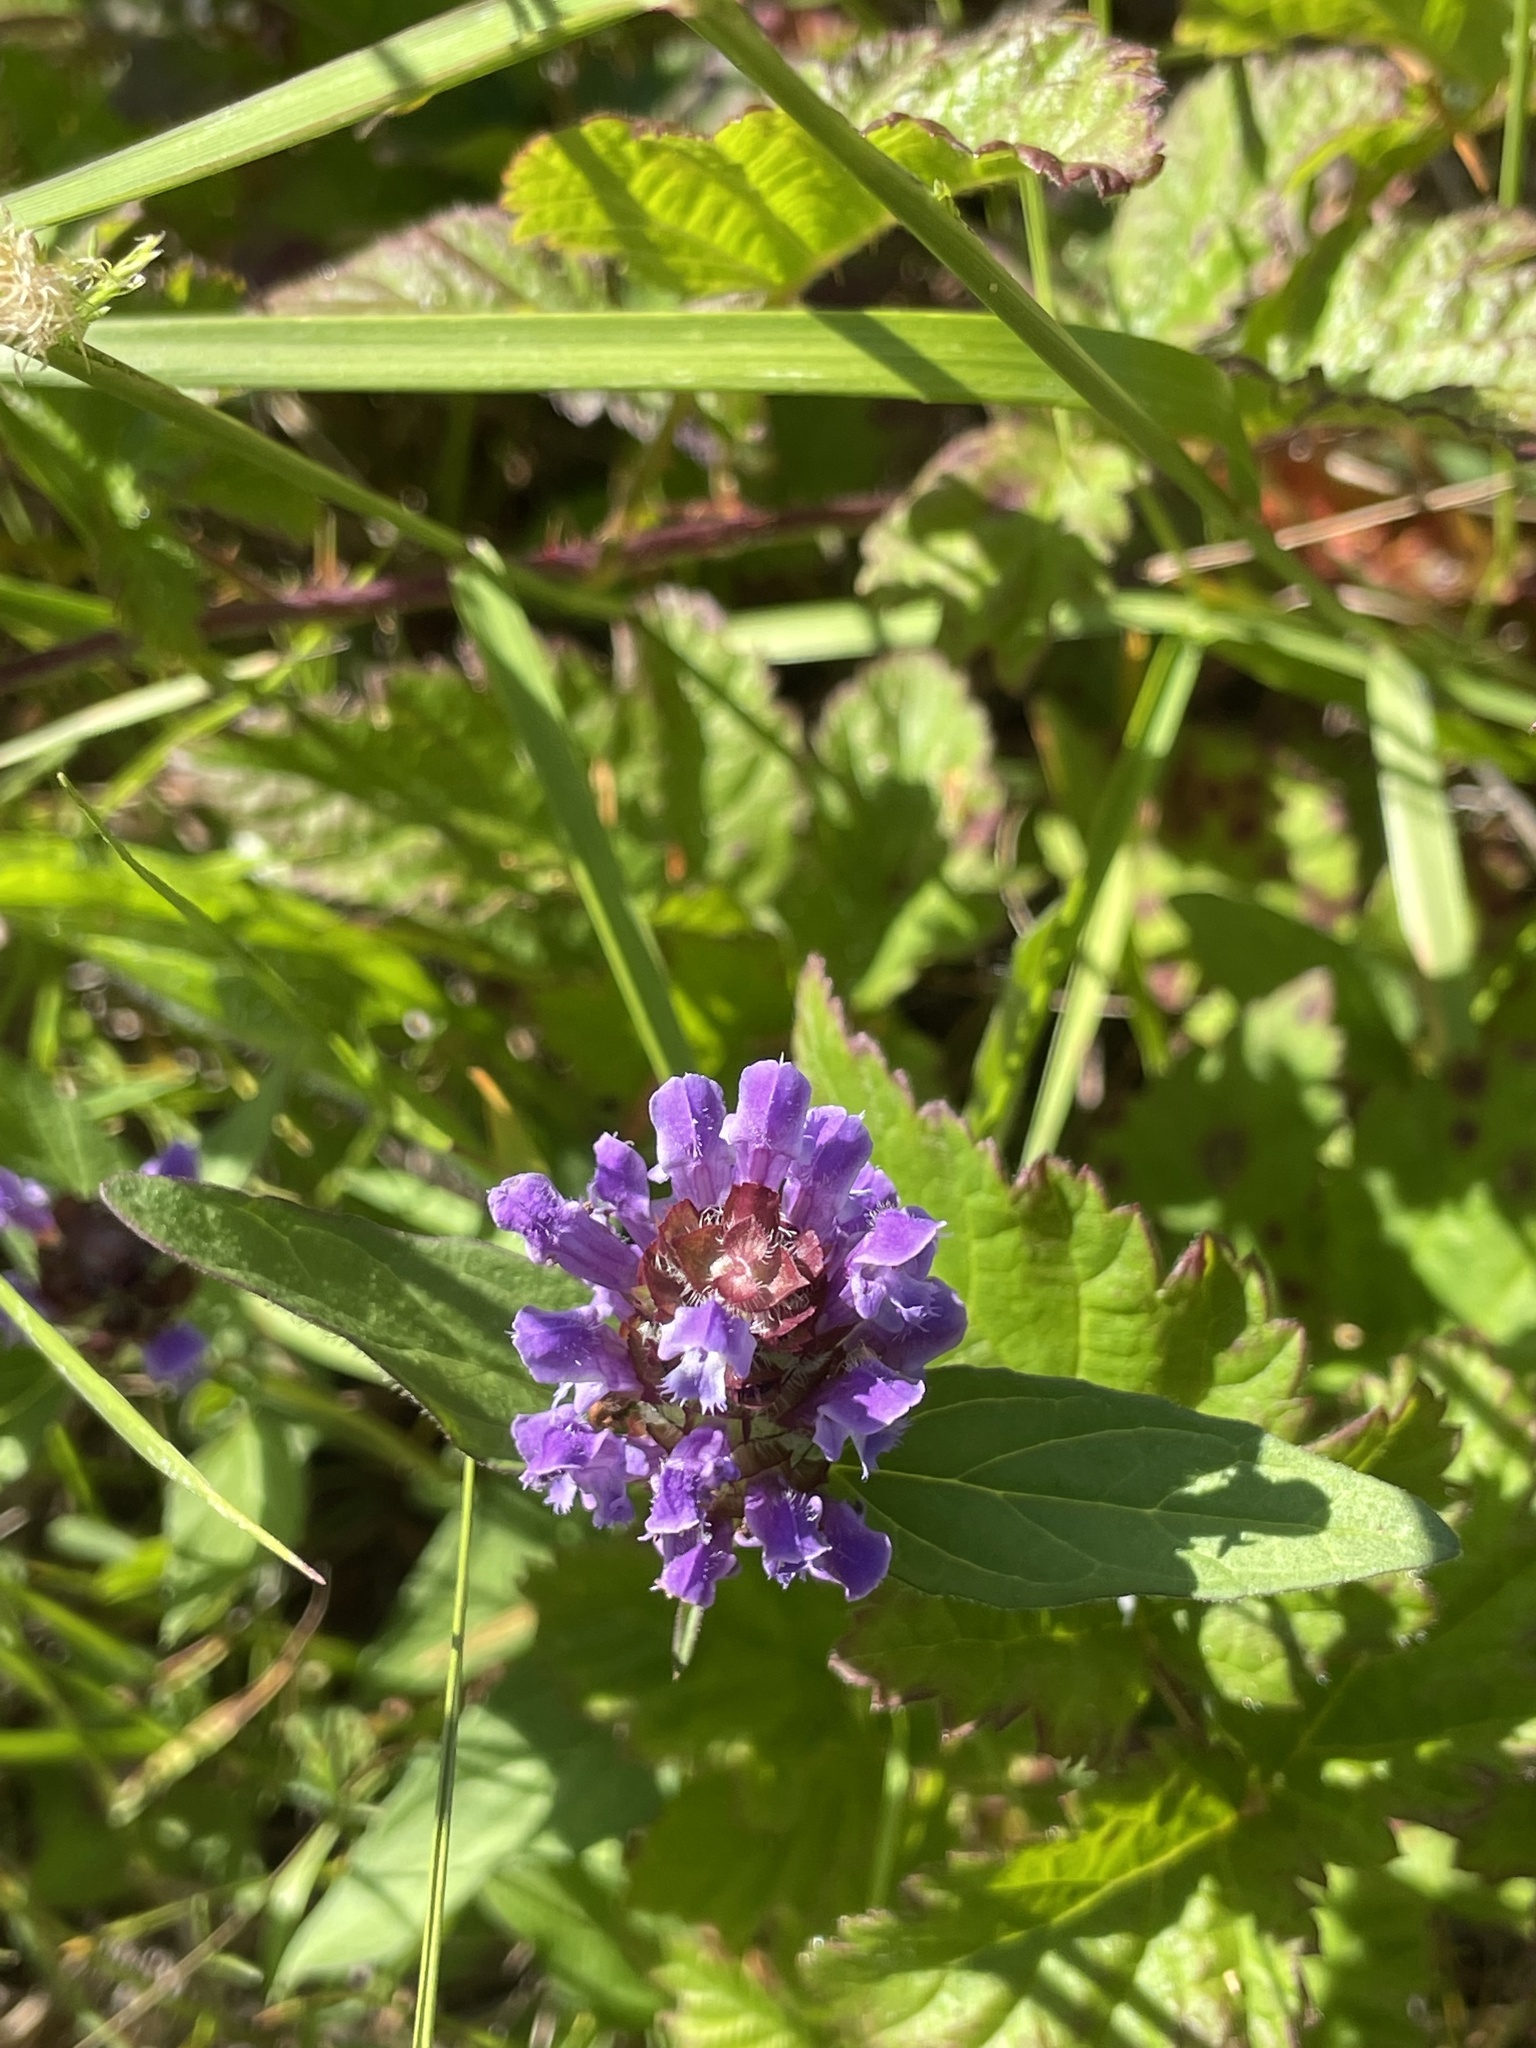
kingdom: Plantae
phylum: Tracheophyta
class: Magnoliopsida
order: Lamiales
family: Lamiaceae
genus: Prunella
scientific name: Prunella vulgaris
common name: Heal-all
